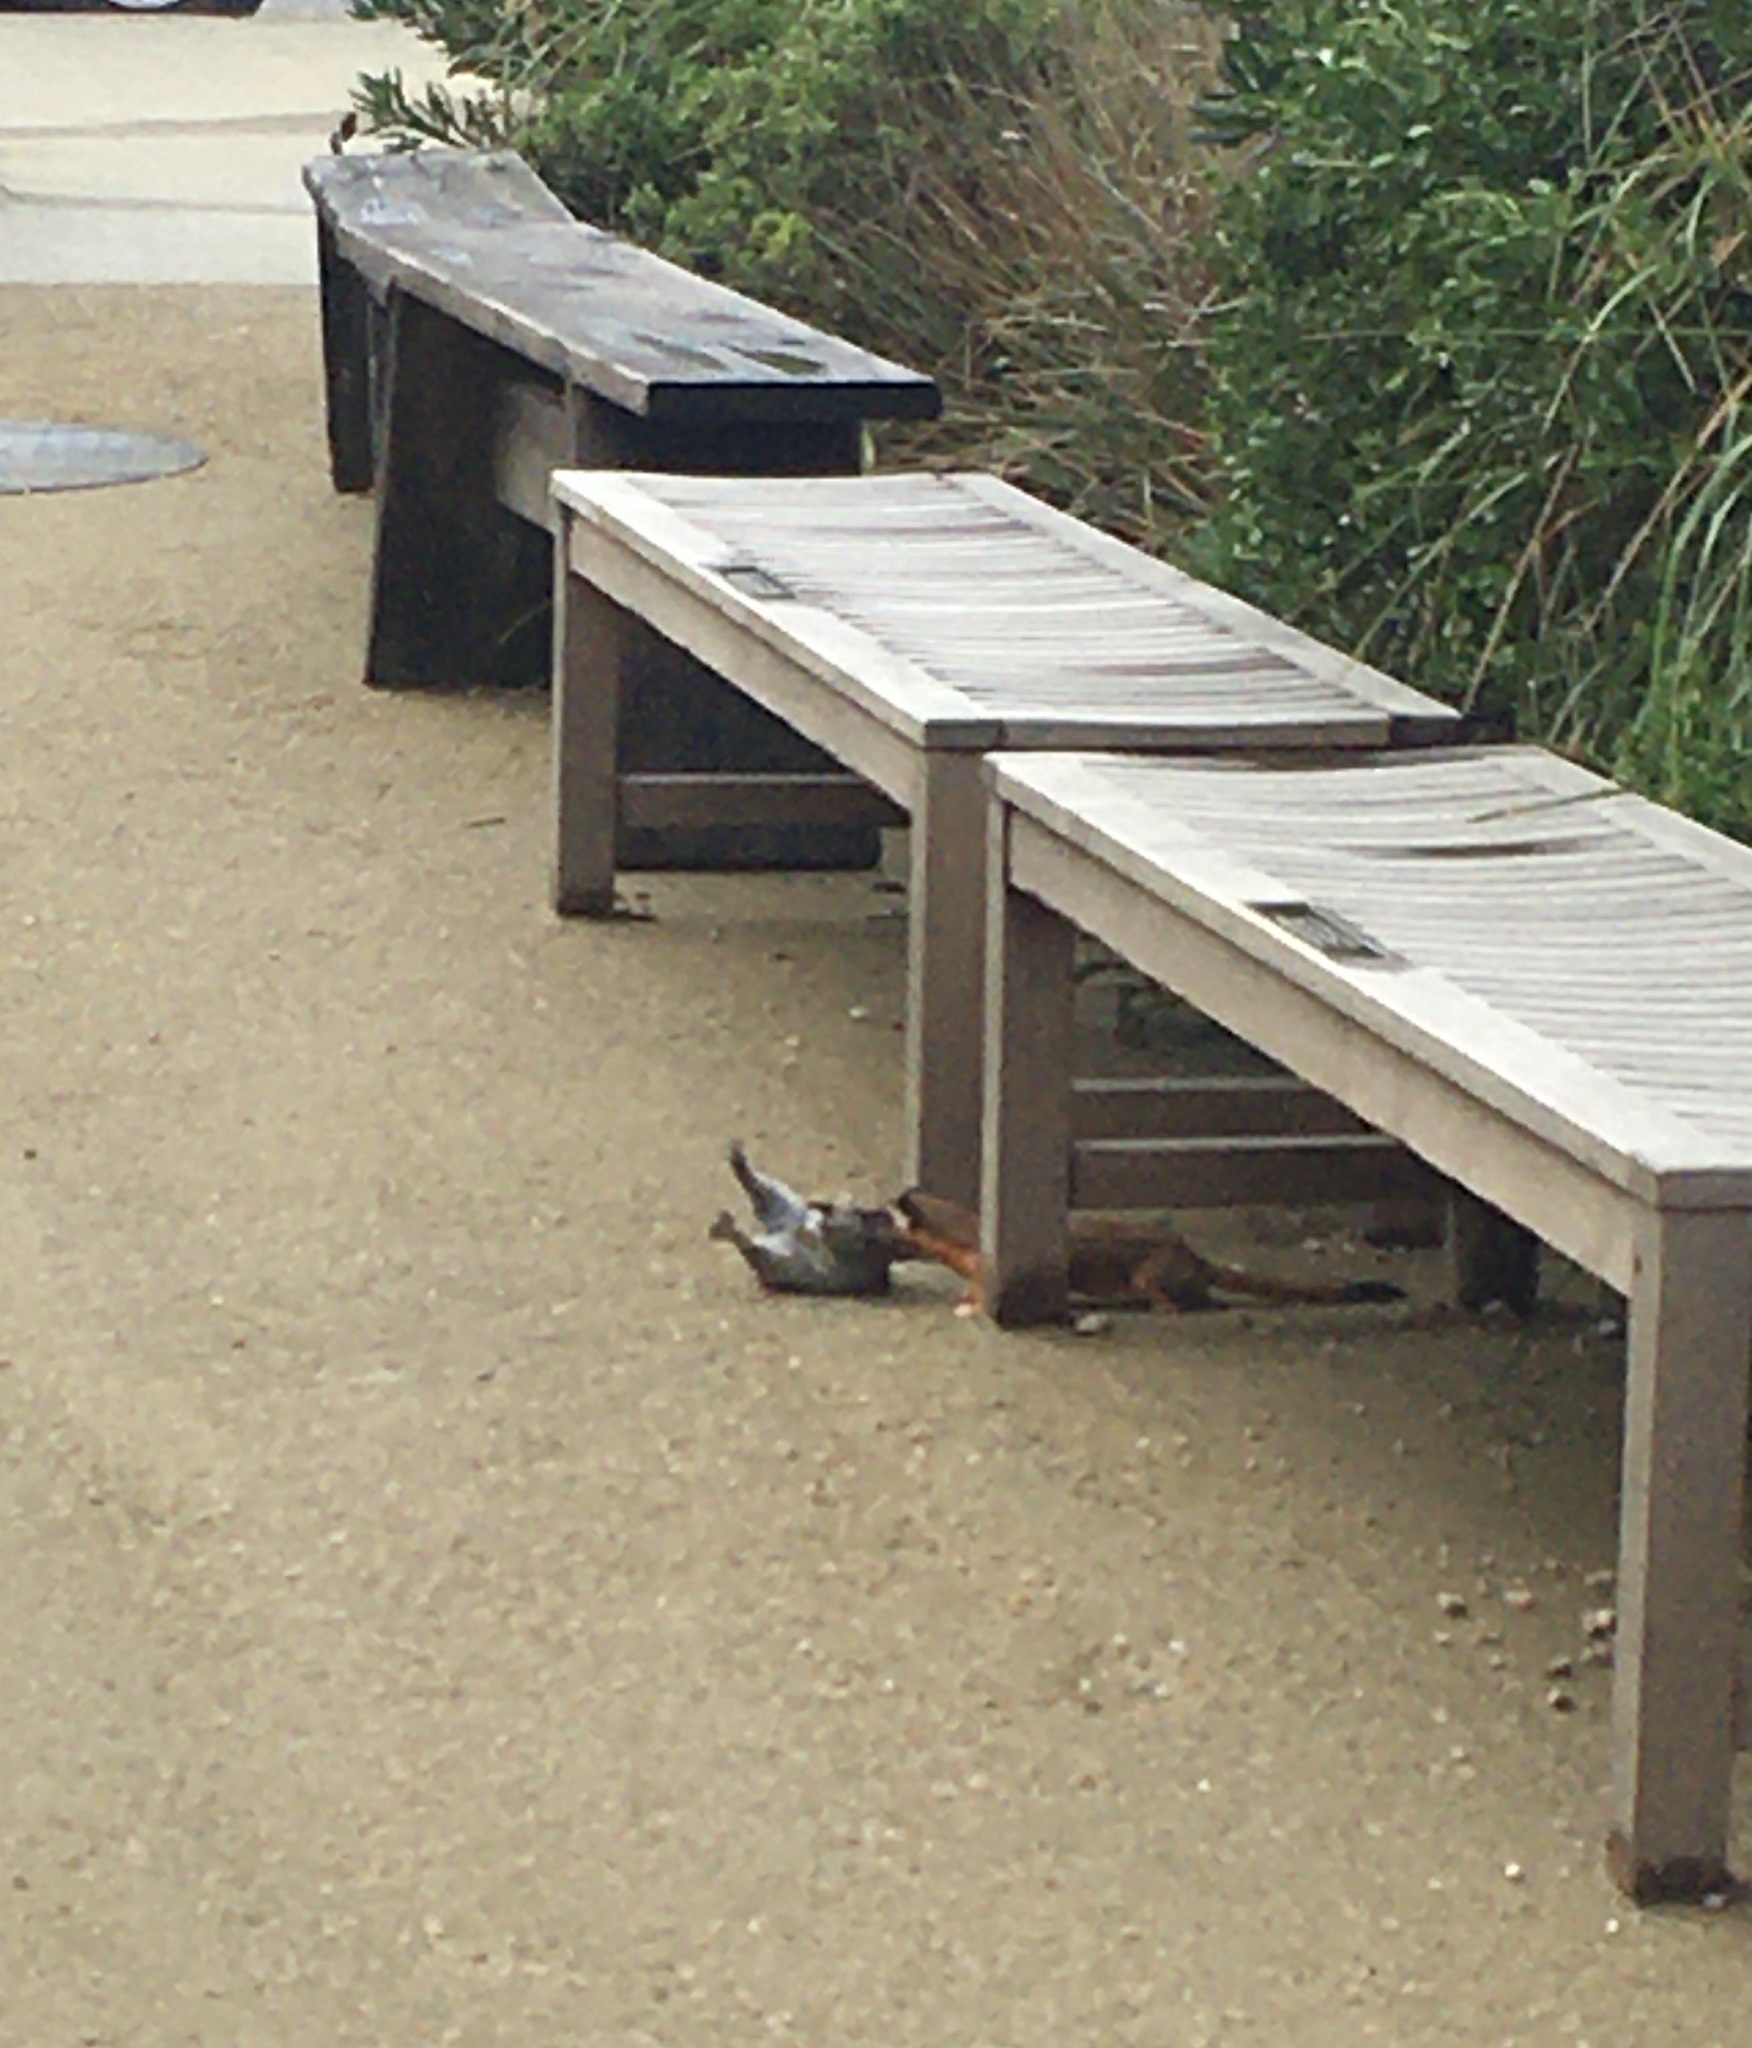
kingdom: Animalia
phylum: Chordata
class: Mammalia
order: Carnivora
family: Mustelidae
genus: Mustela
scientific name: Mustela
